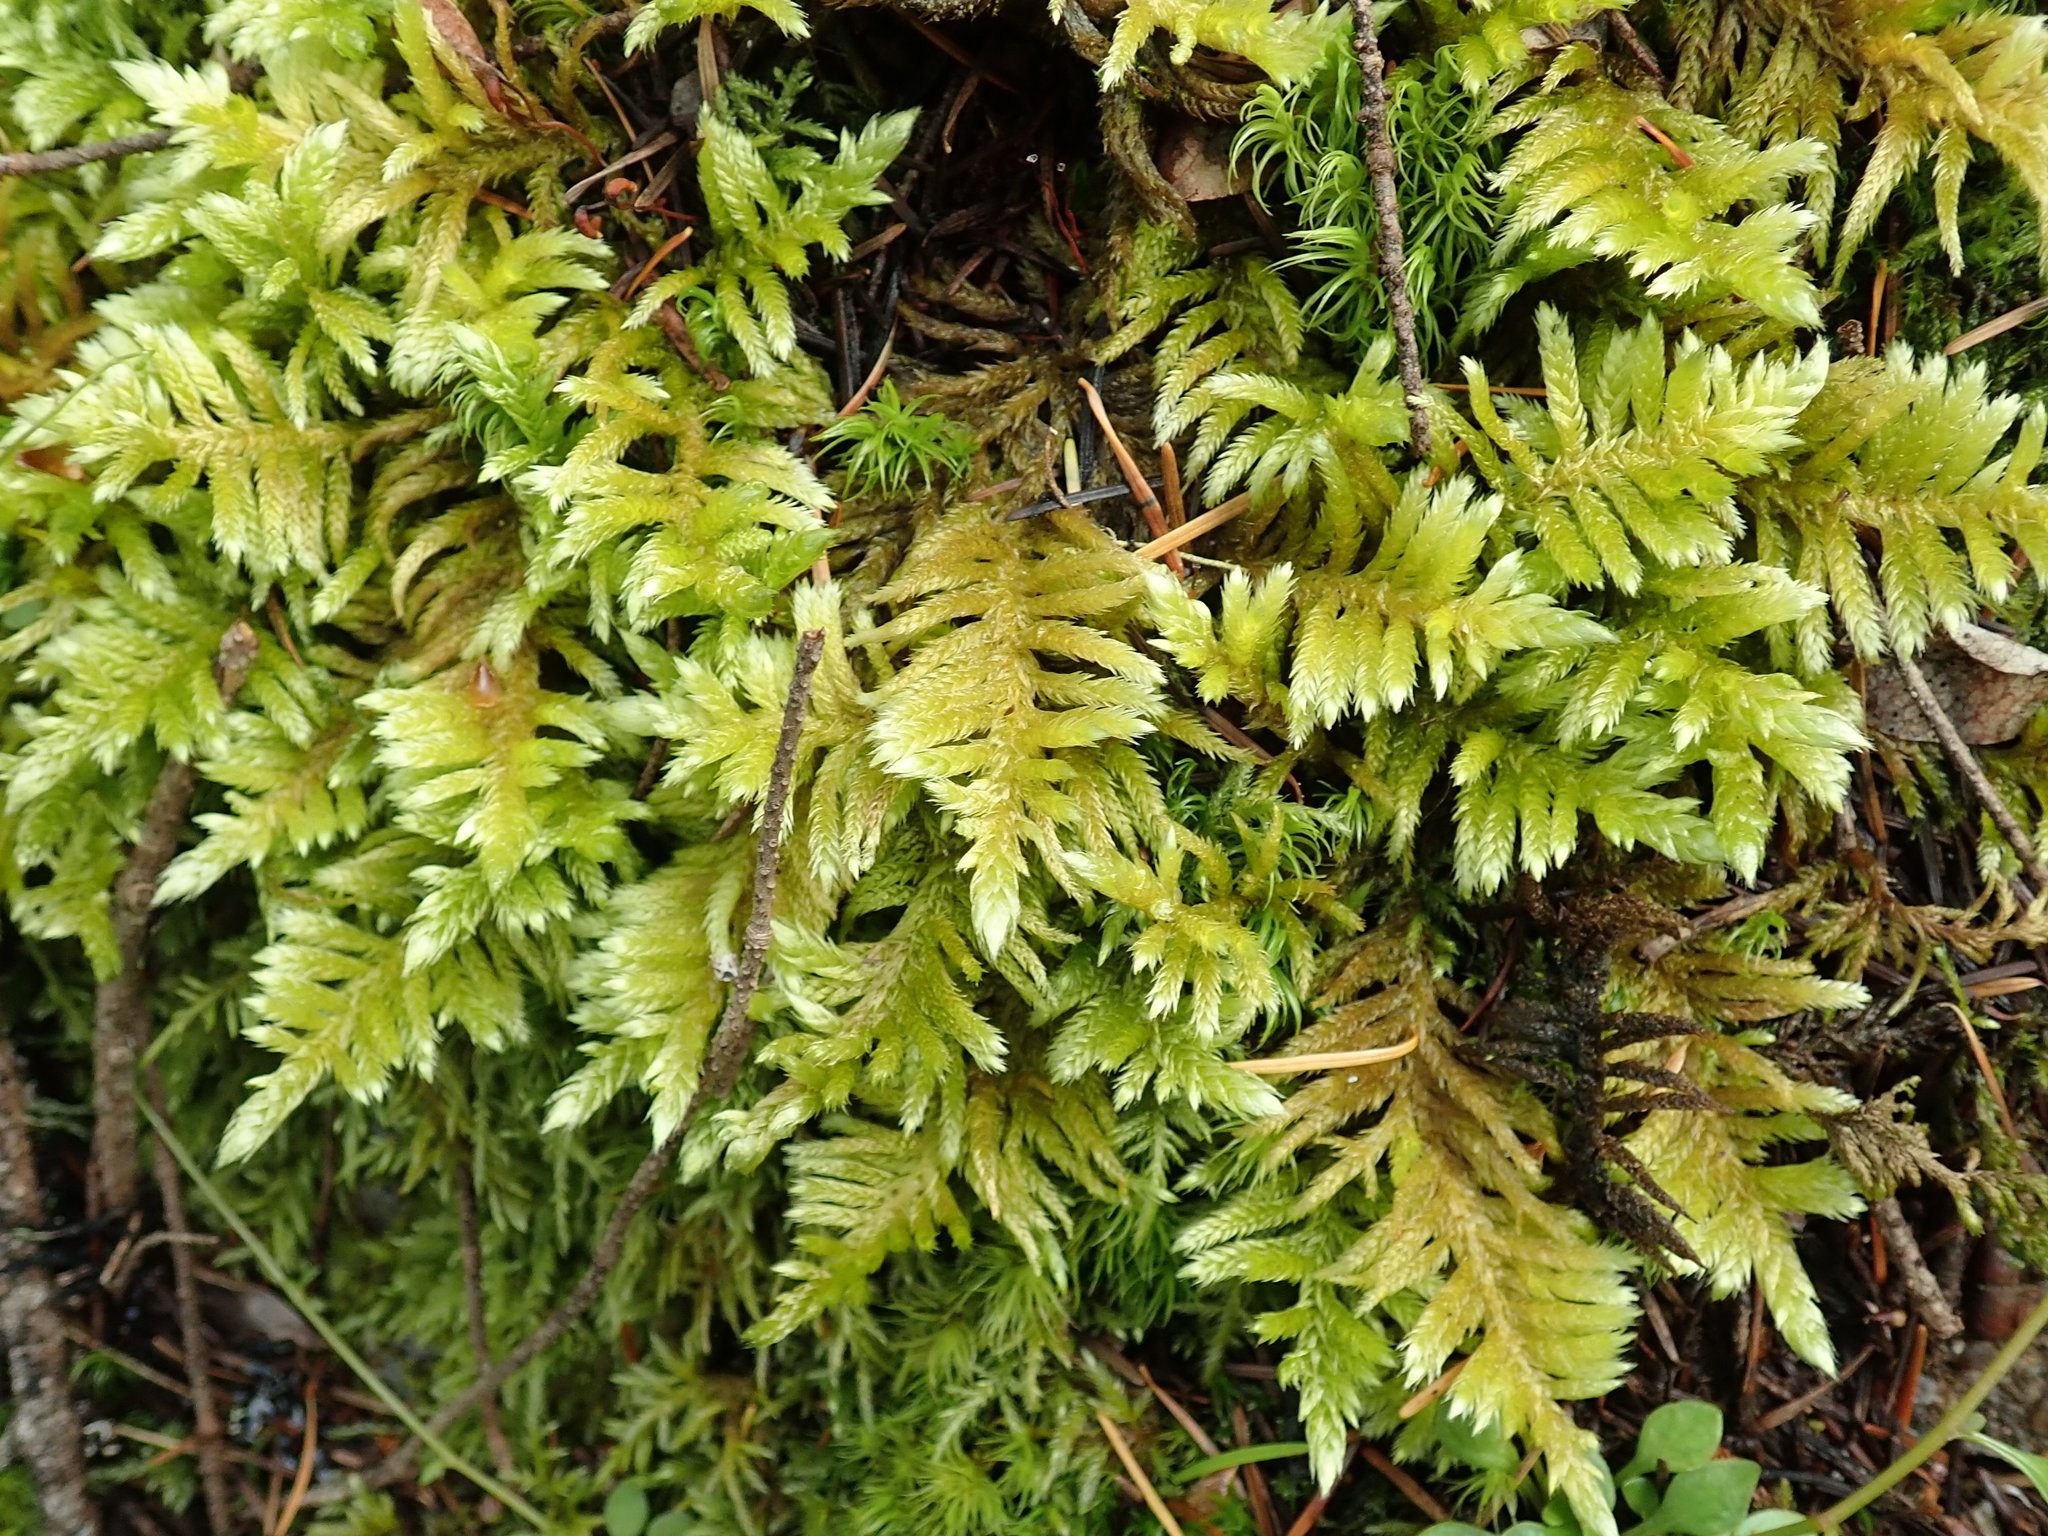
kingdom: Plantae
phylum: Bryophyta
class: Bryopsida
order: Hypnales
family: Brachytheciaceae
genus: Homalothecium
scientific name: Homalothecium megaptilum
